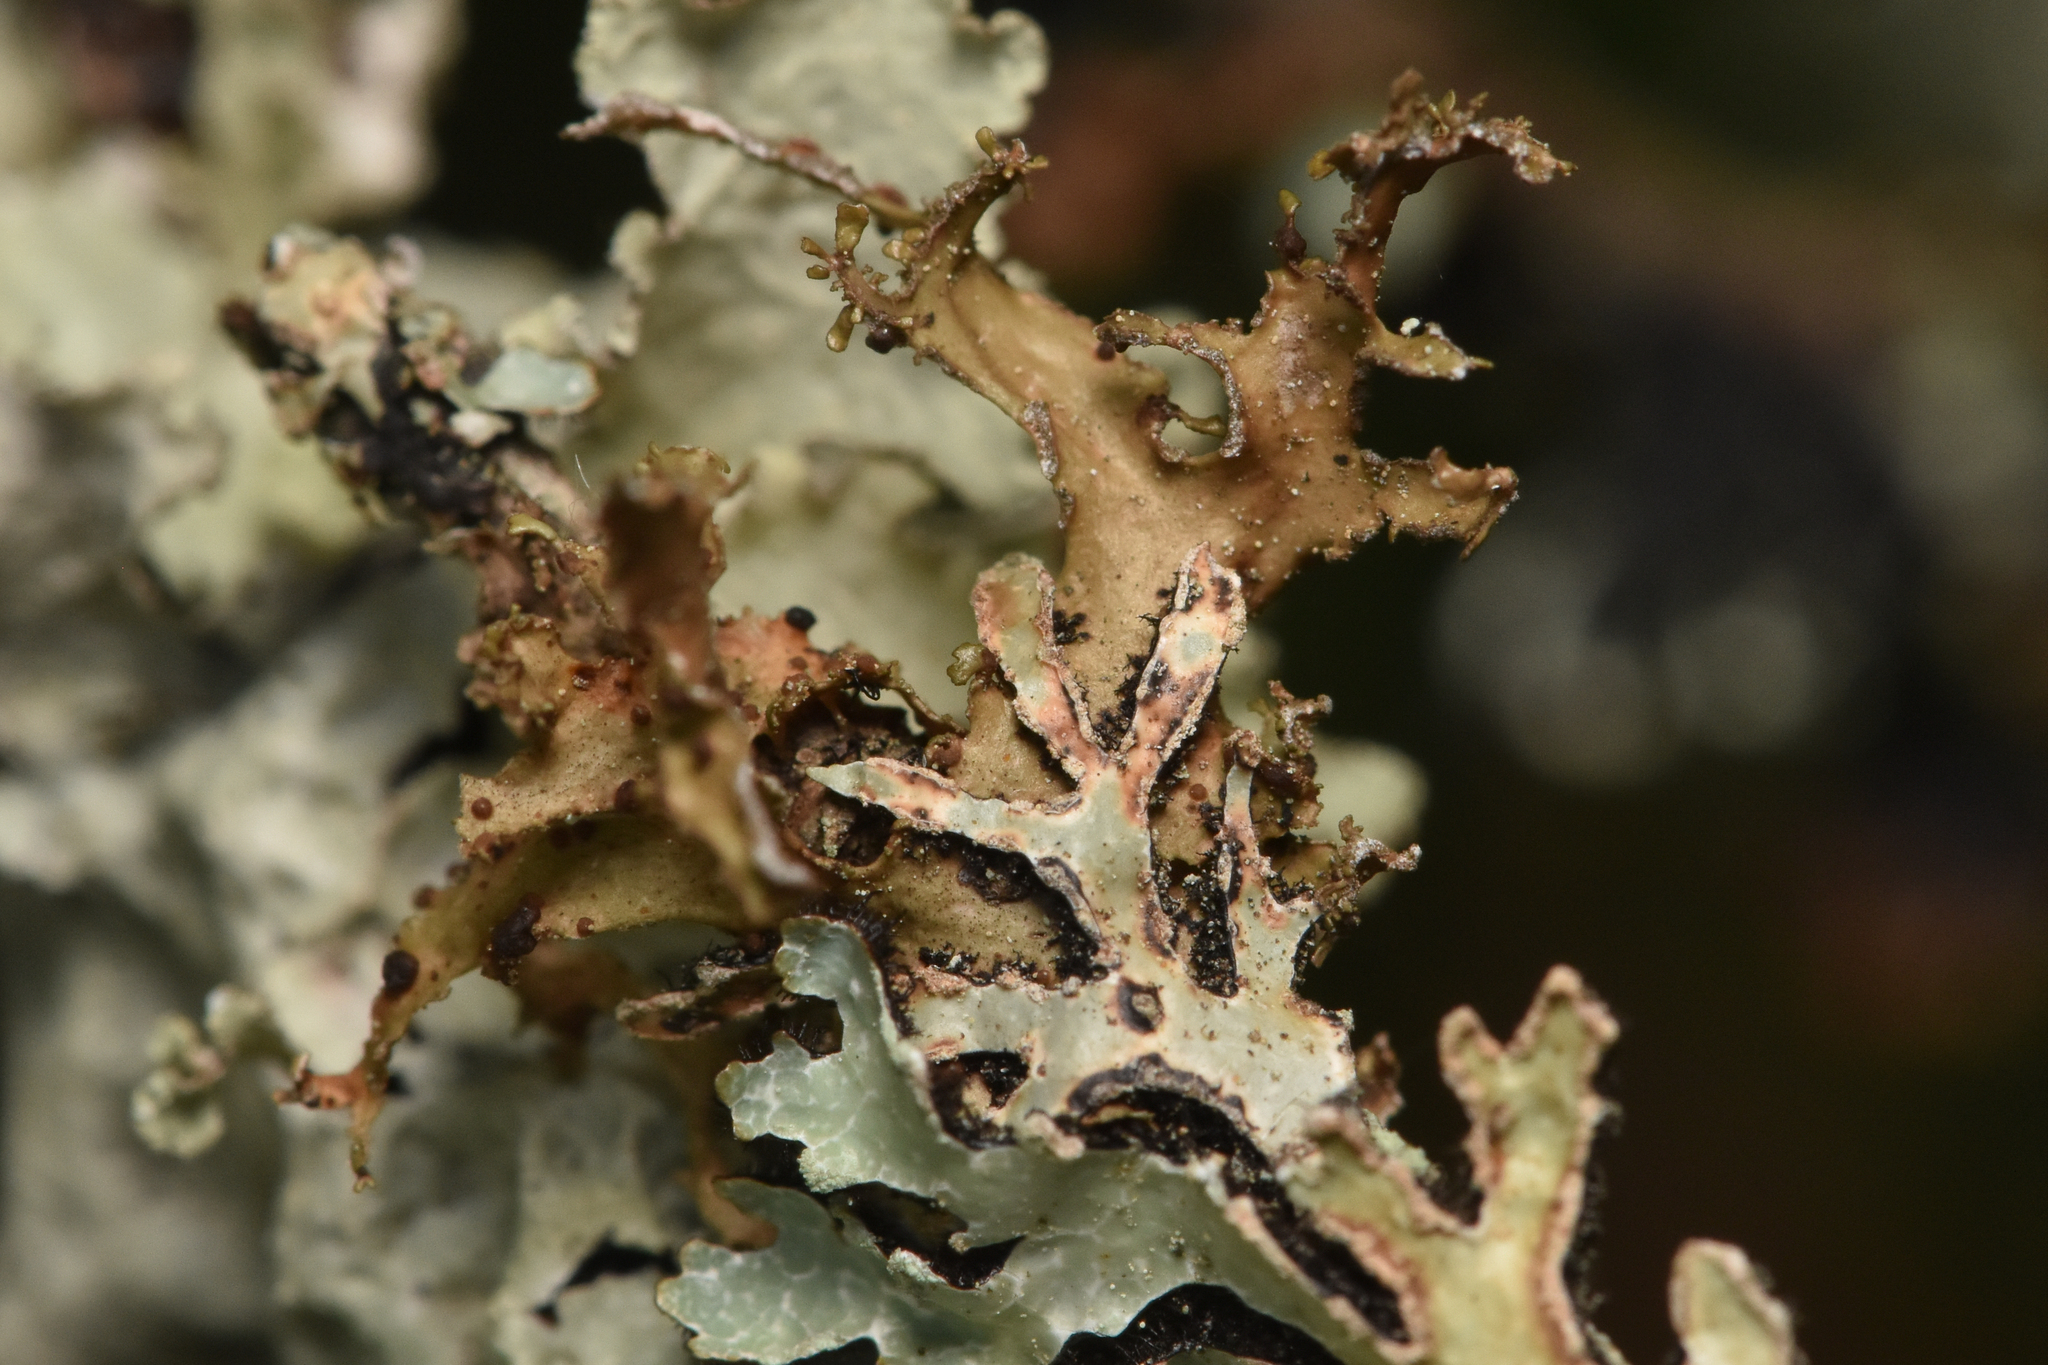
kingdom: Fungi
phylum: Ascomycota
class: Lecanoromycetes
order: Lecanorales
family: Parmeliaceae
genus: Nephromopsis
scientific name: Nephromopsis chlorophylla
